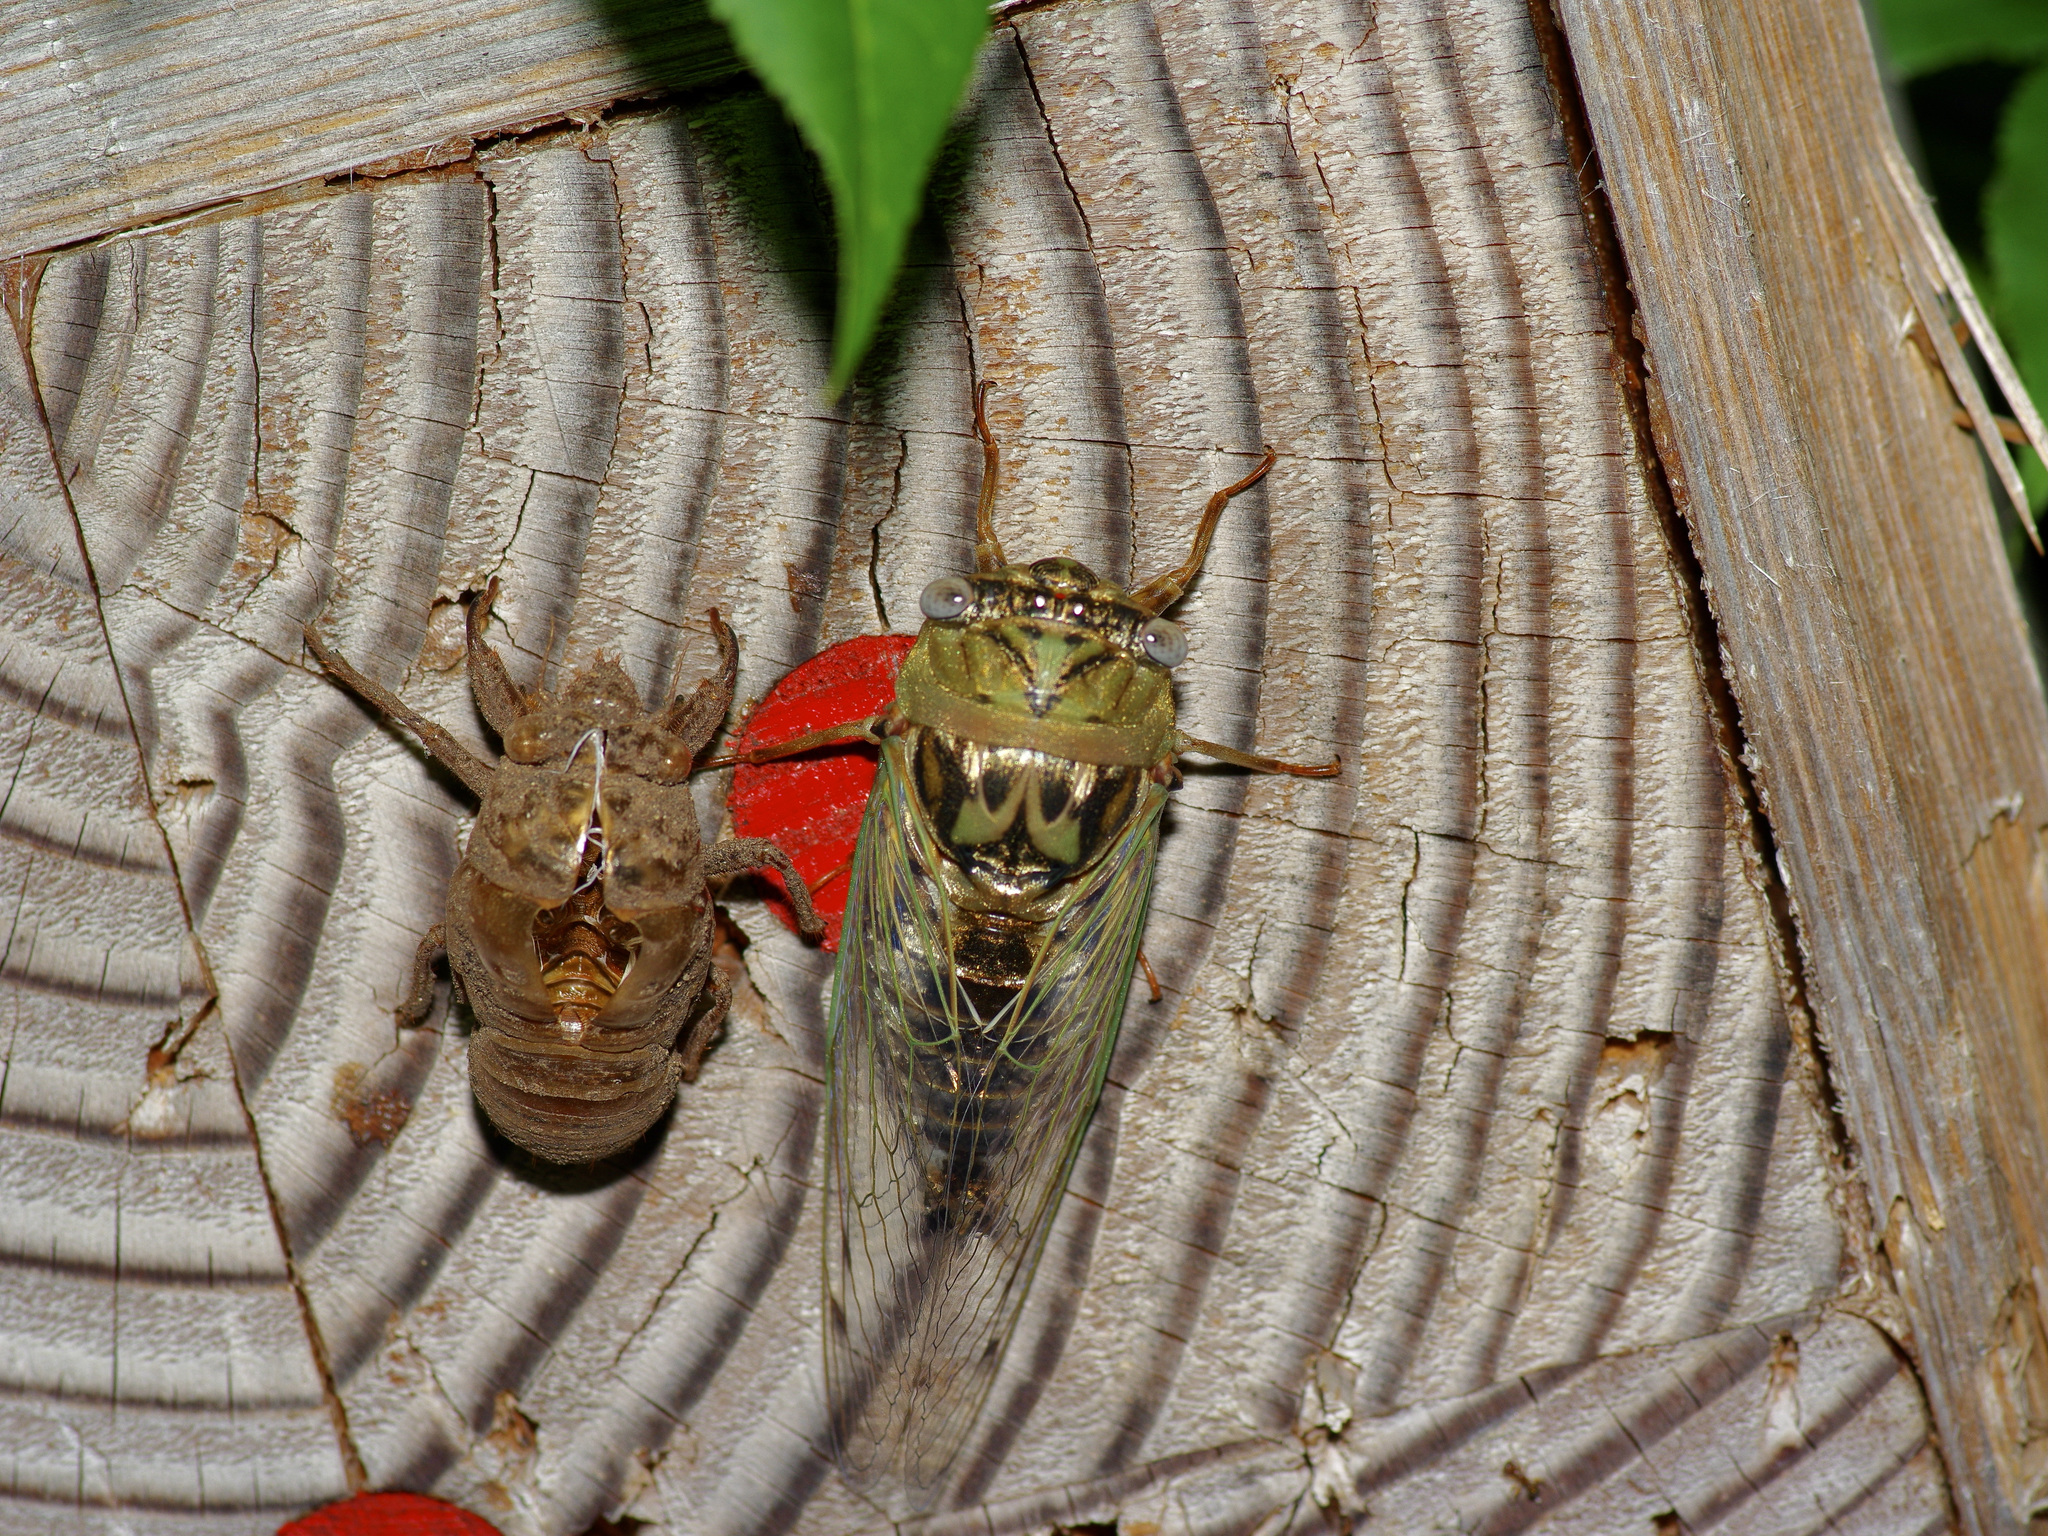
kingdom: Animalia
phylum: Arthropoda
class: Insecta
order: Hemiptera
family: Cicadidae
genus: Megatibicen
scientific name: Megatibicen resh
